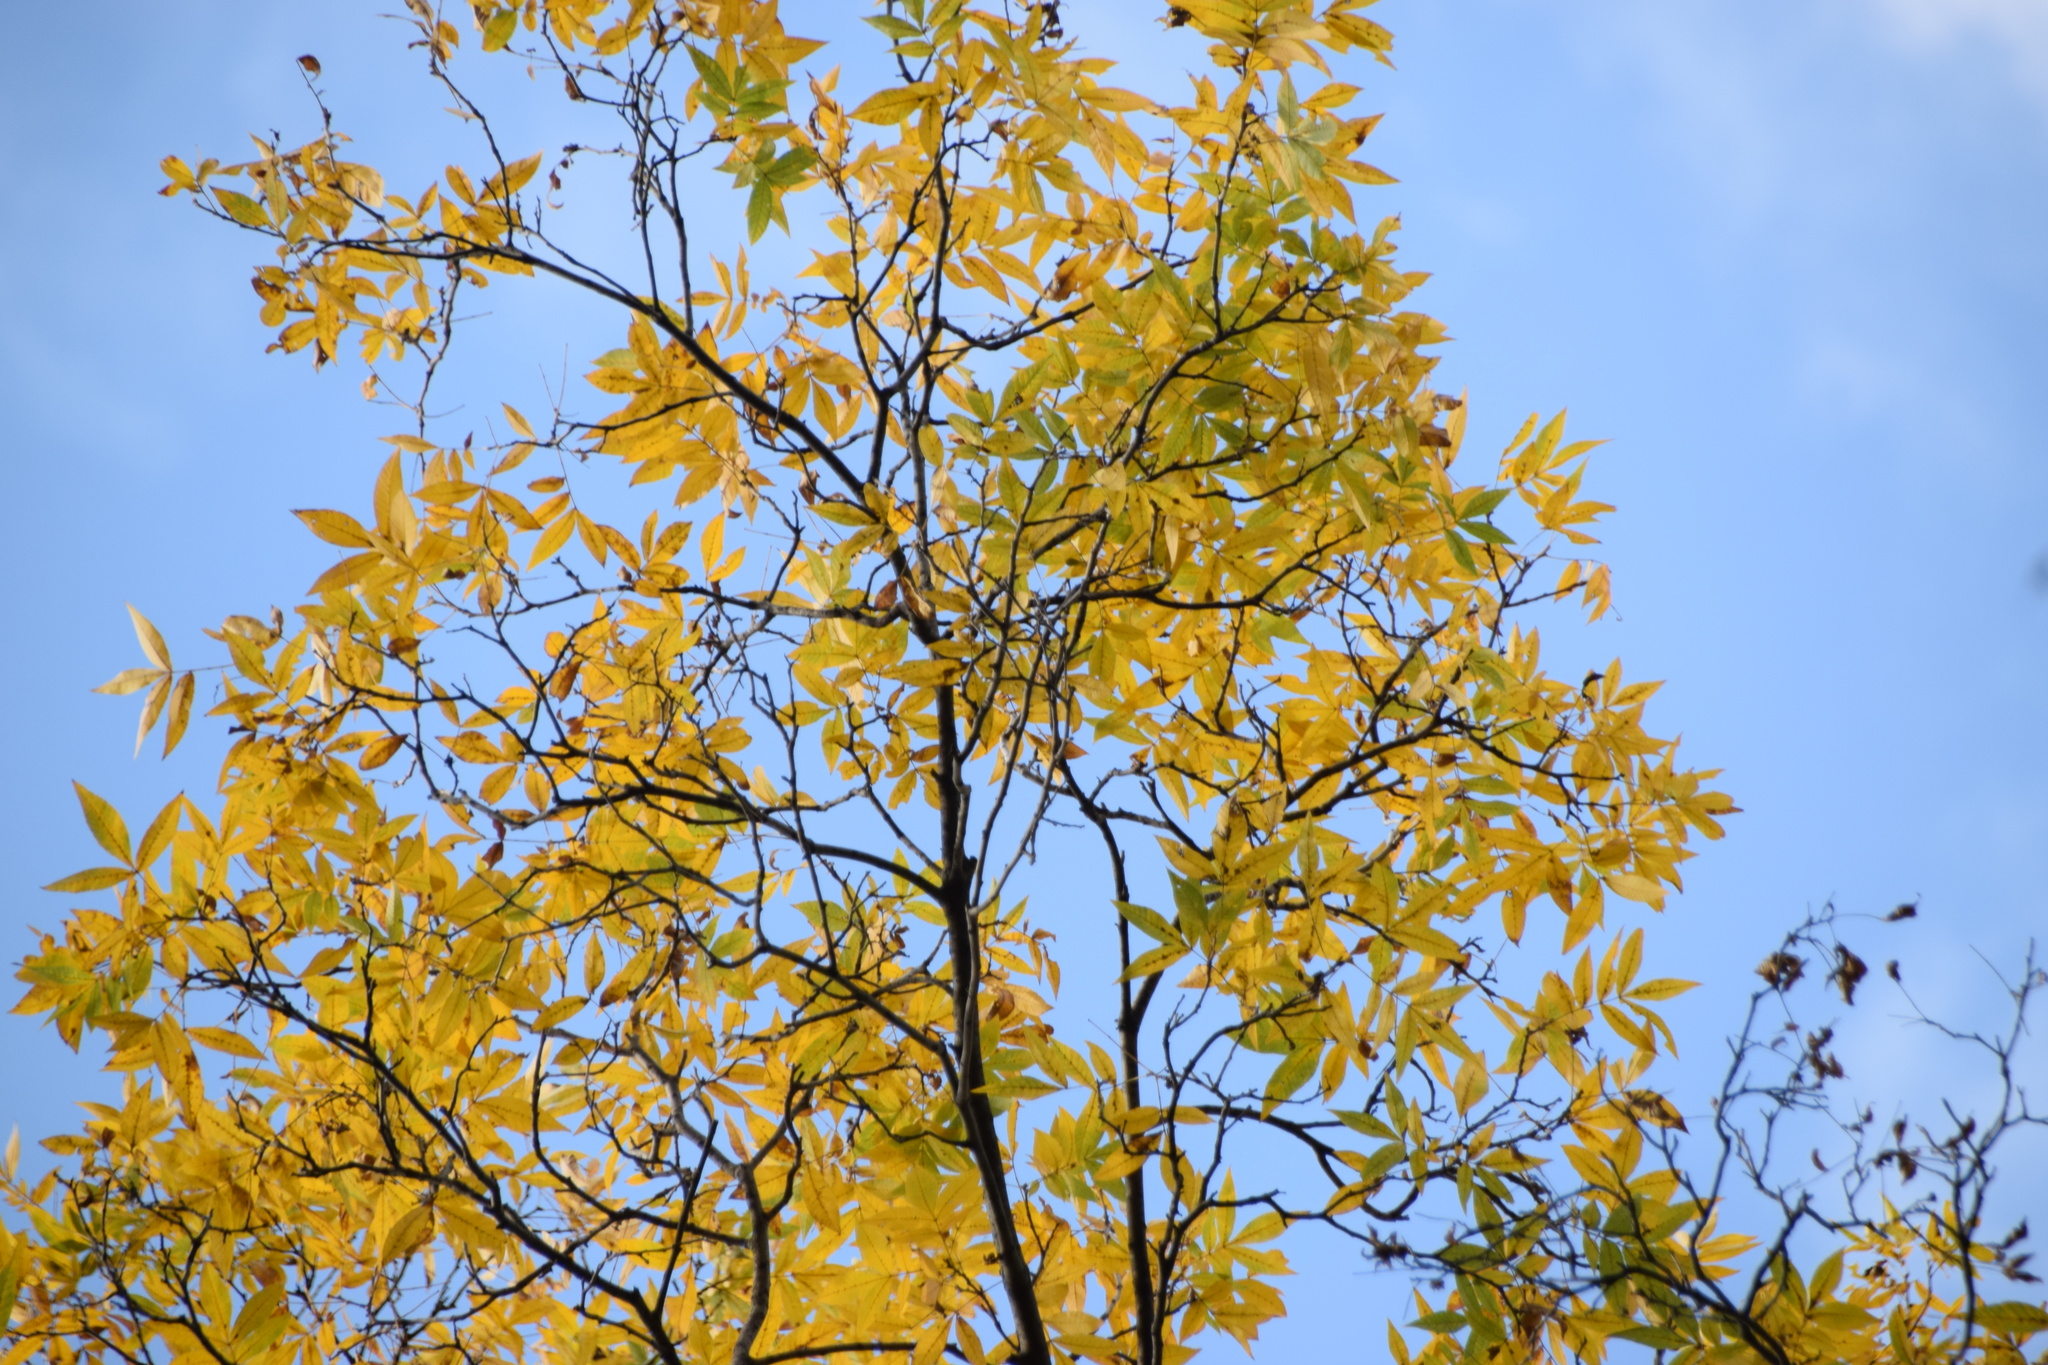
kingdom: Plantae
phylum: Tracheophyta
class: Magnoliopsida
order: Fagales
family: Juglandaceae
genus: Carya
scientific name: Carya cordiformis
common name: Bitternut hickory
